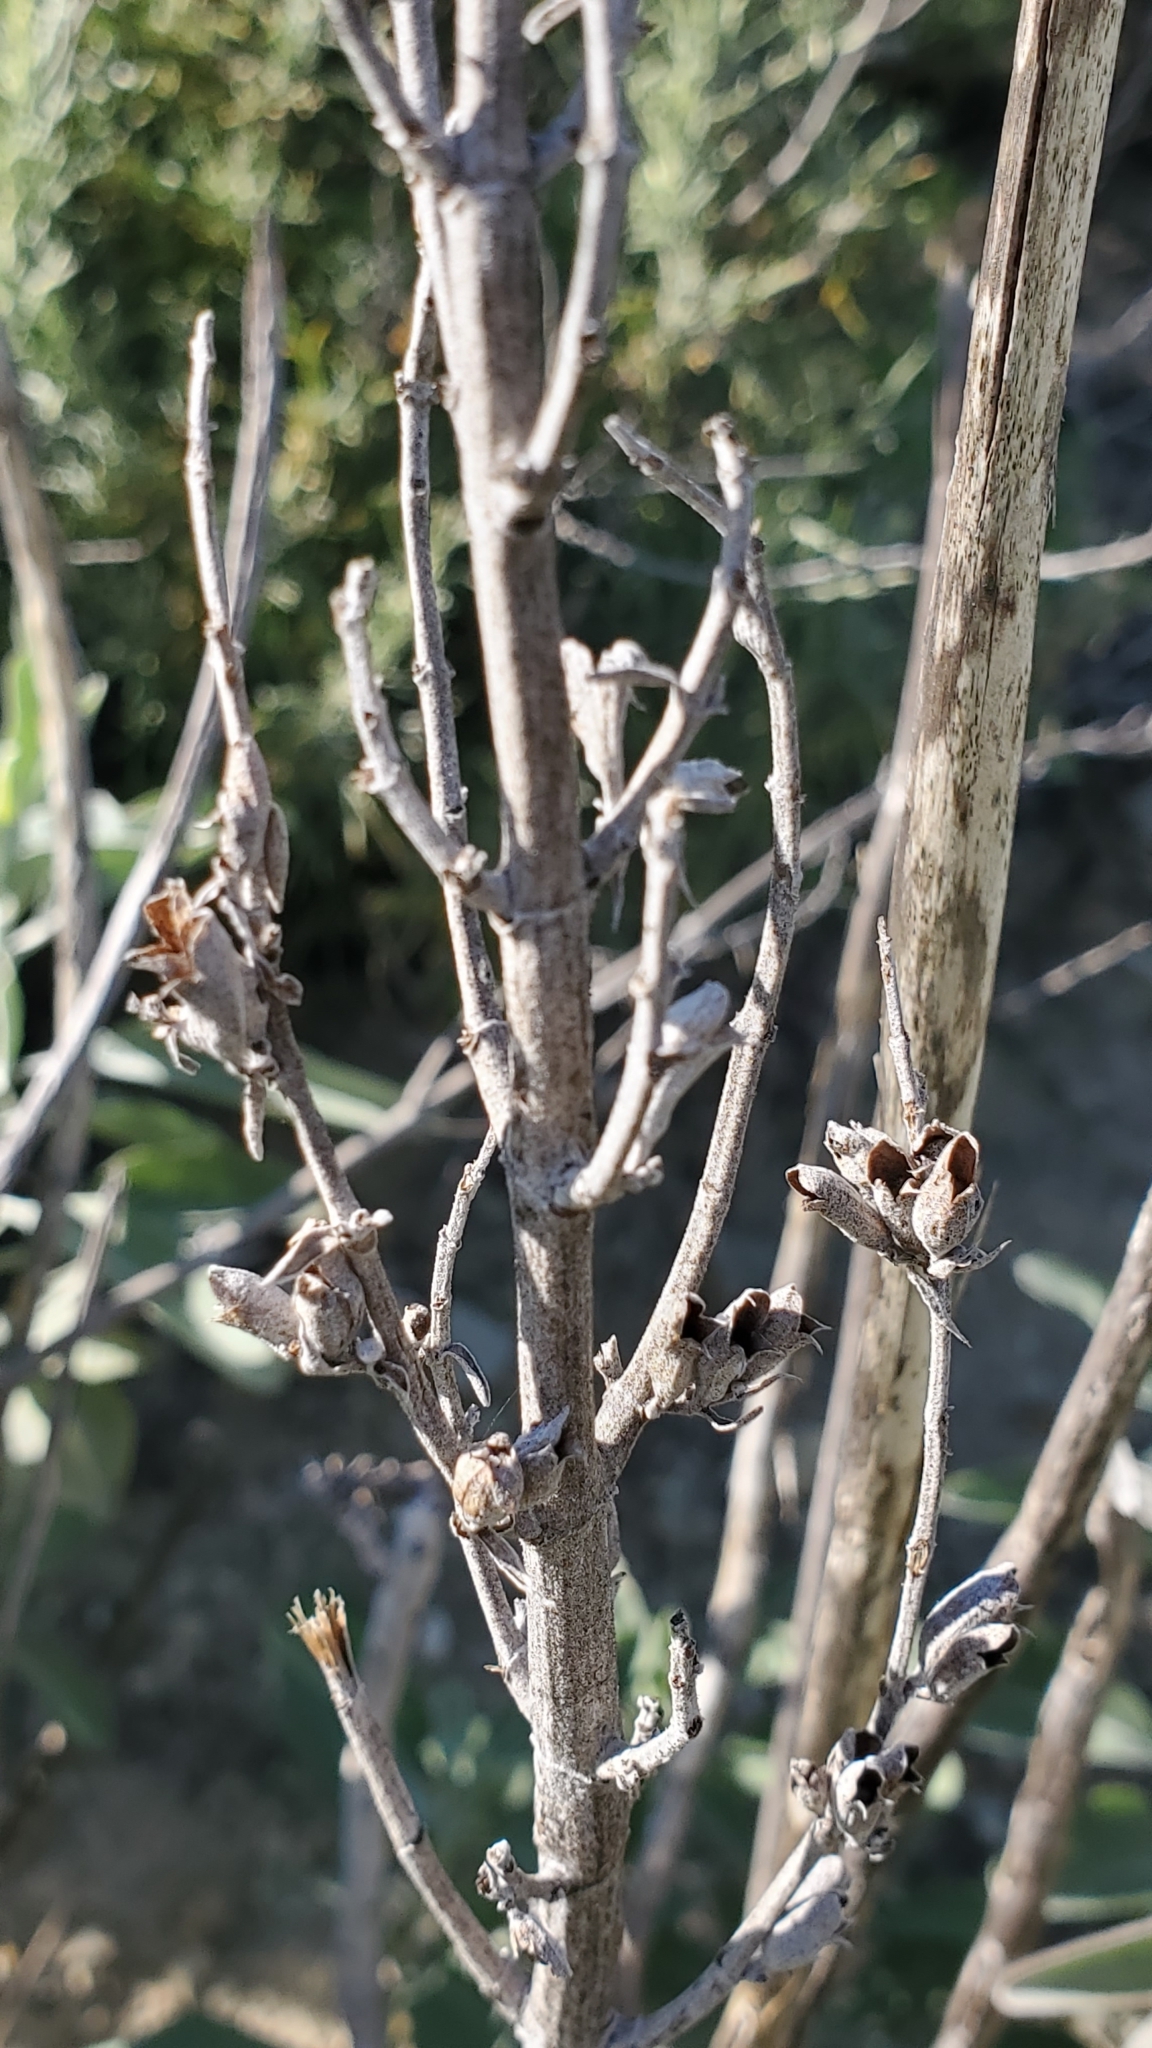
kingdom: Plantae
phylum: Tracheophyta
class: Magnoliopsida
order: Lamiales
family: Lamiaceae
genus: Salvia
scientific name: Salvia apiana
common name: White sage
